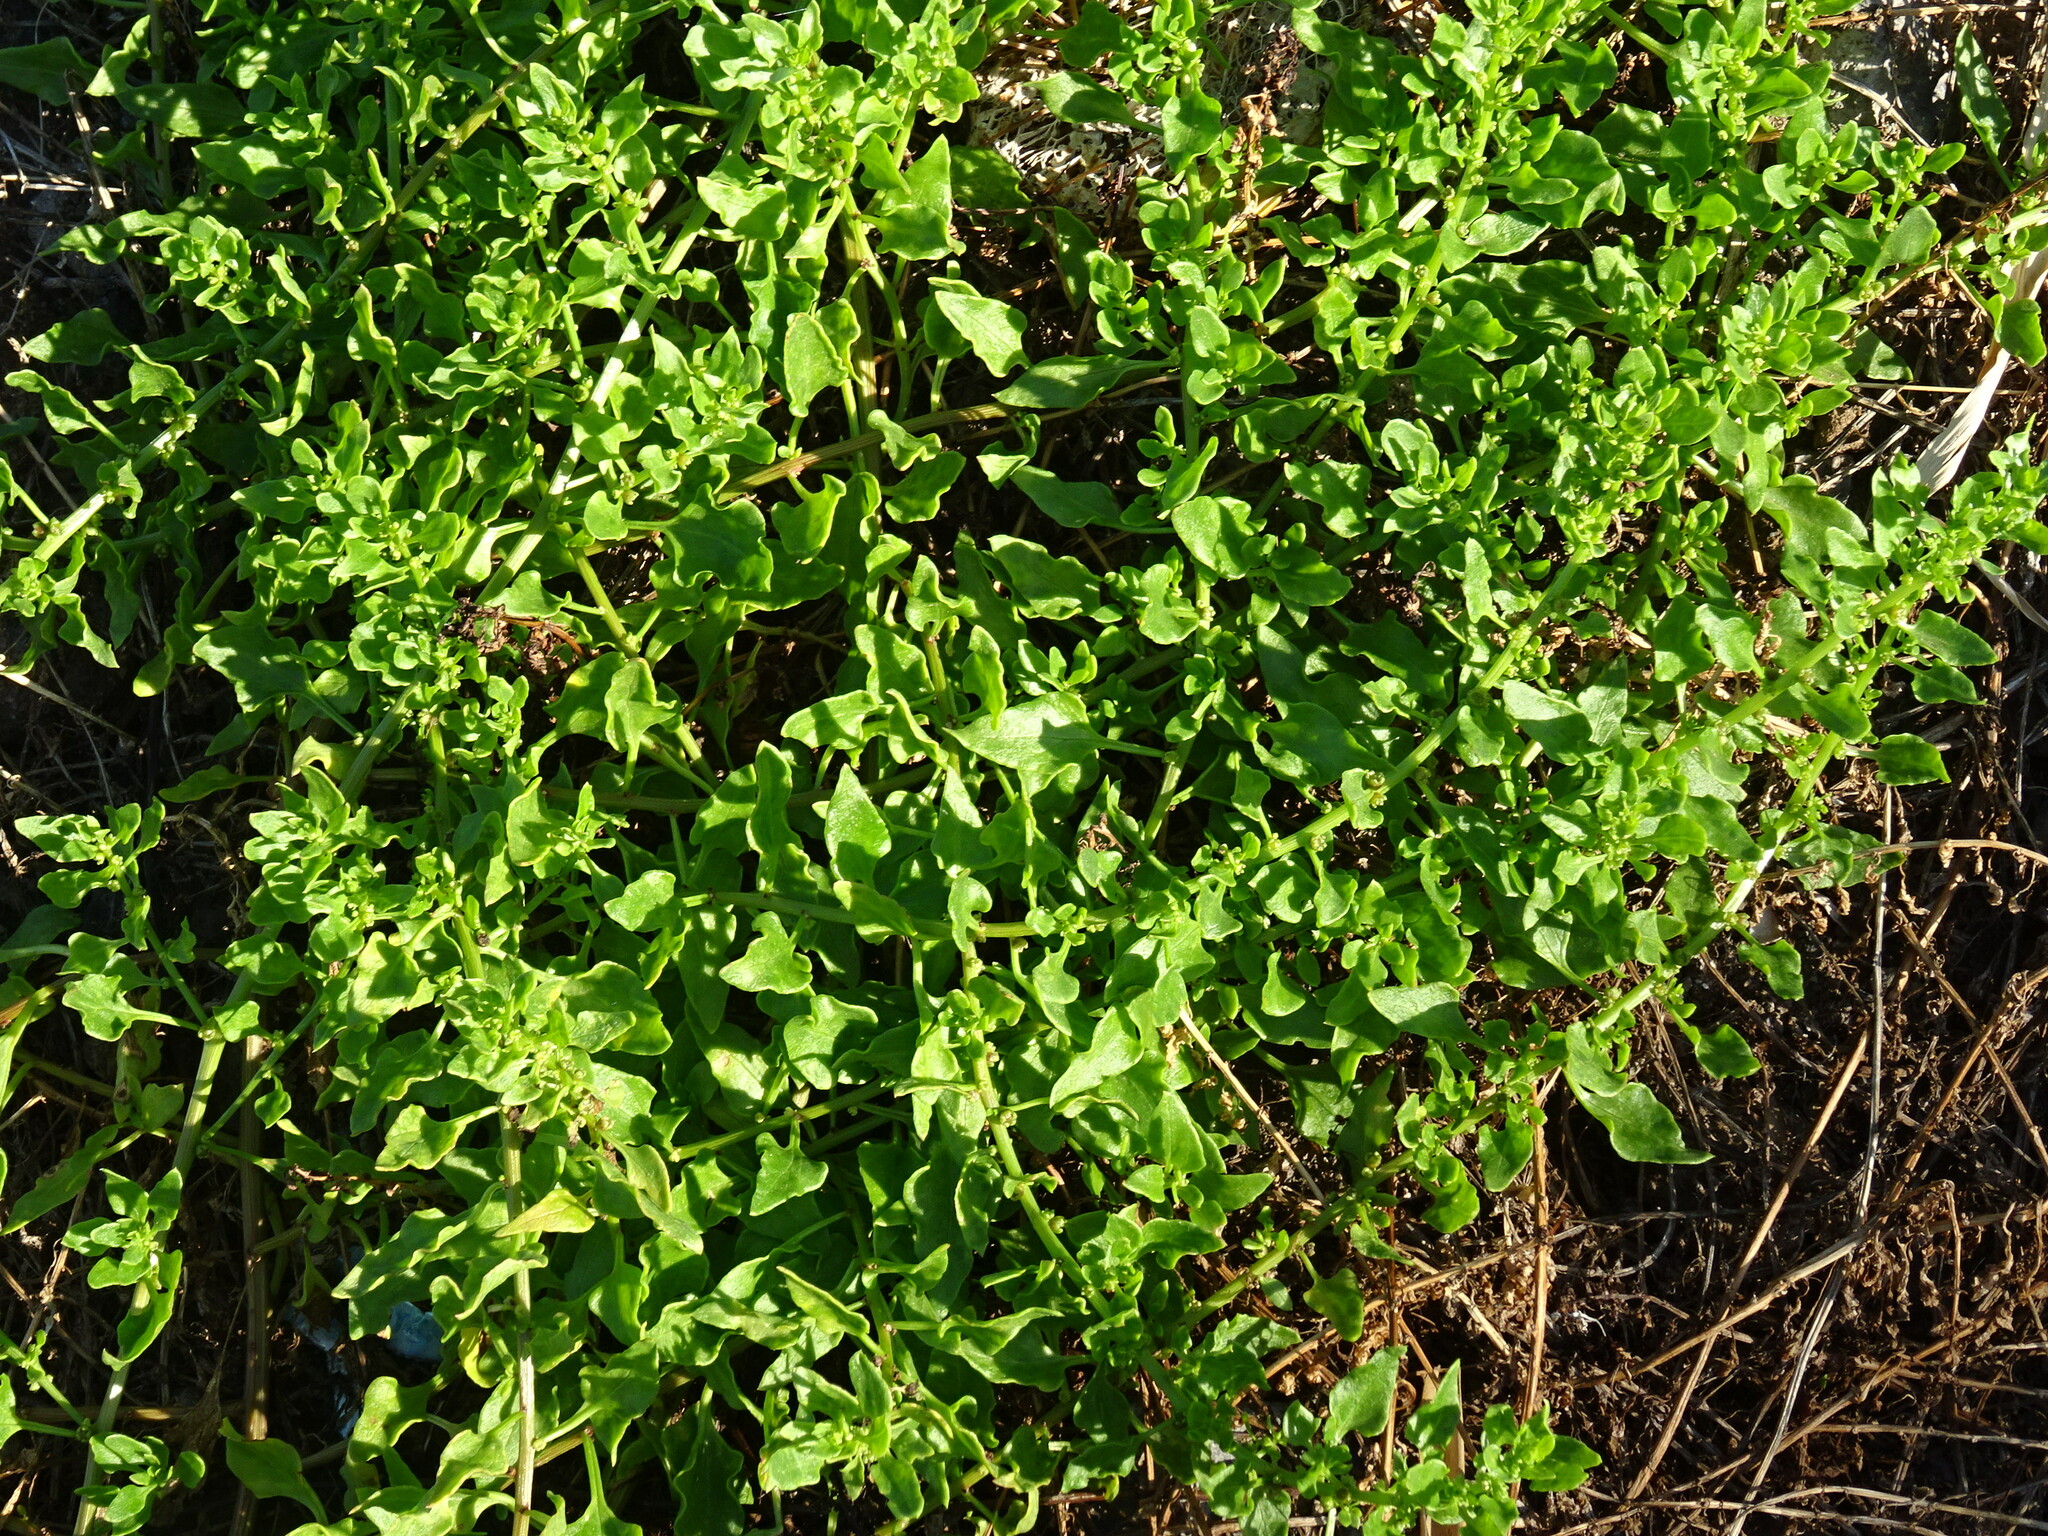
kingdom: Plantae
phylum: Tracheophyta
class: Magnoliopsida
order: Caryophyllales
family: Amaranthaceae
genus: Patellifolia
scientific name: Patellifolia procumbens
